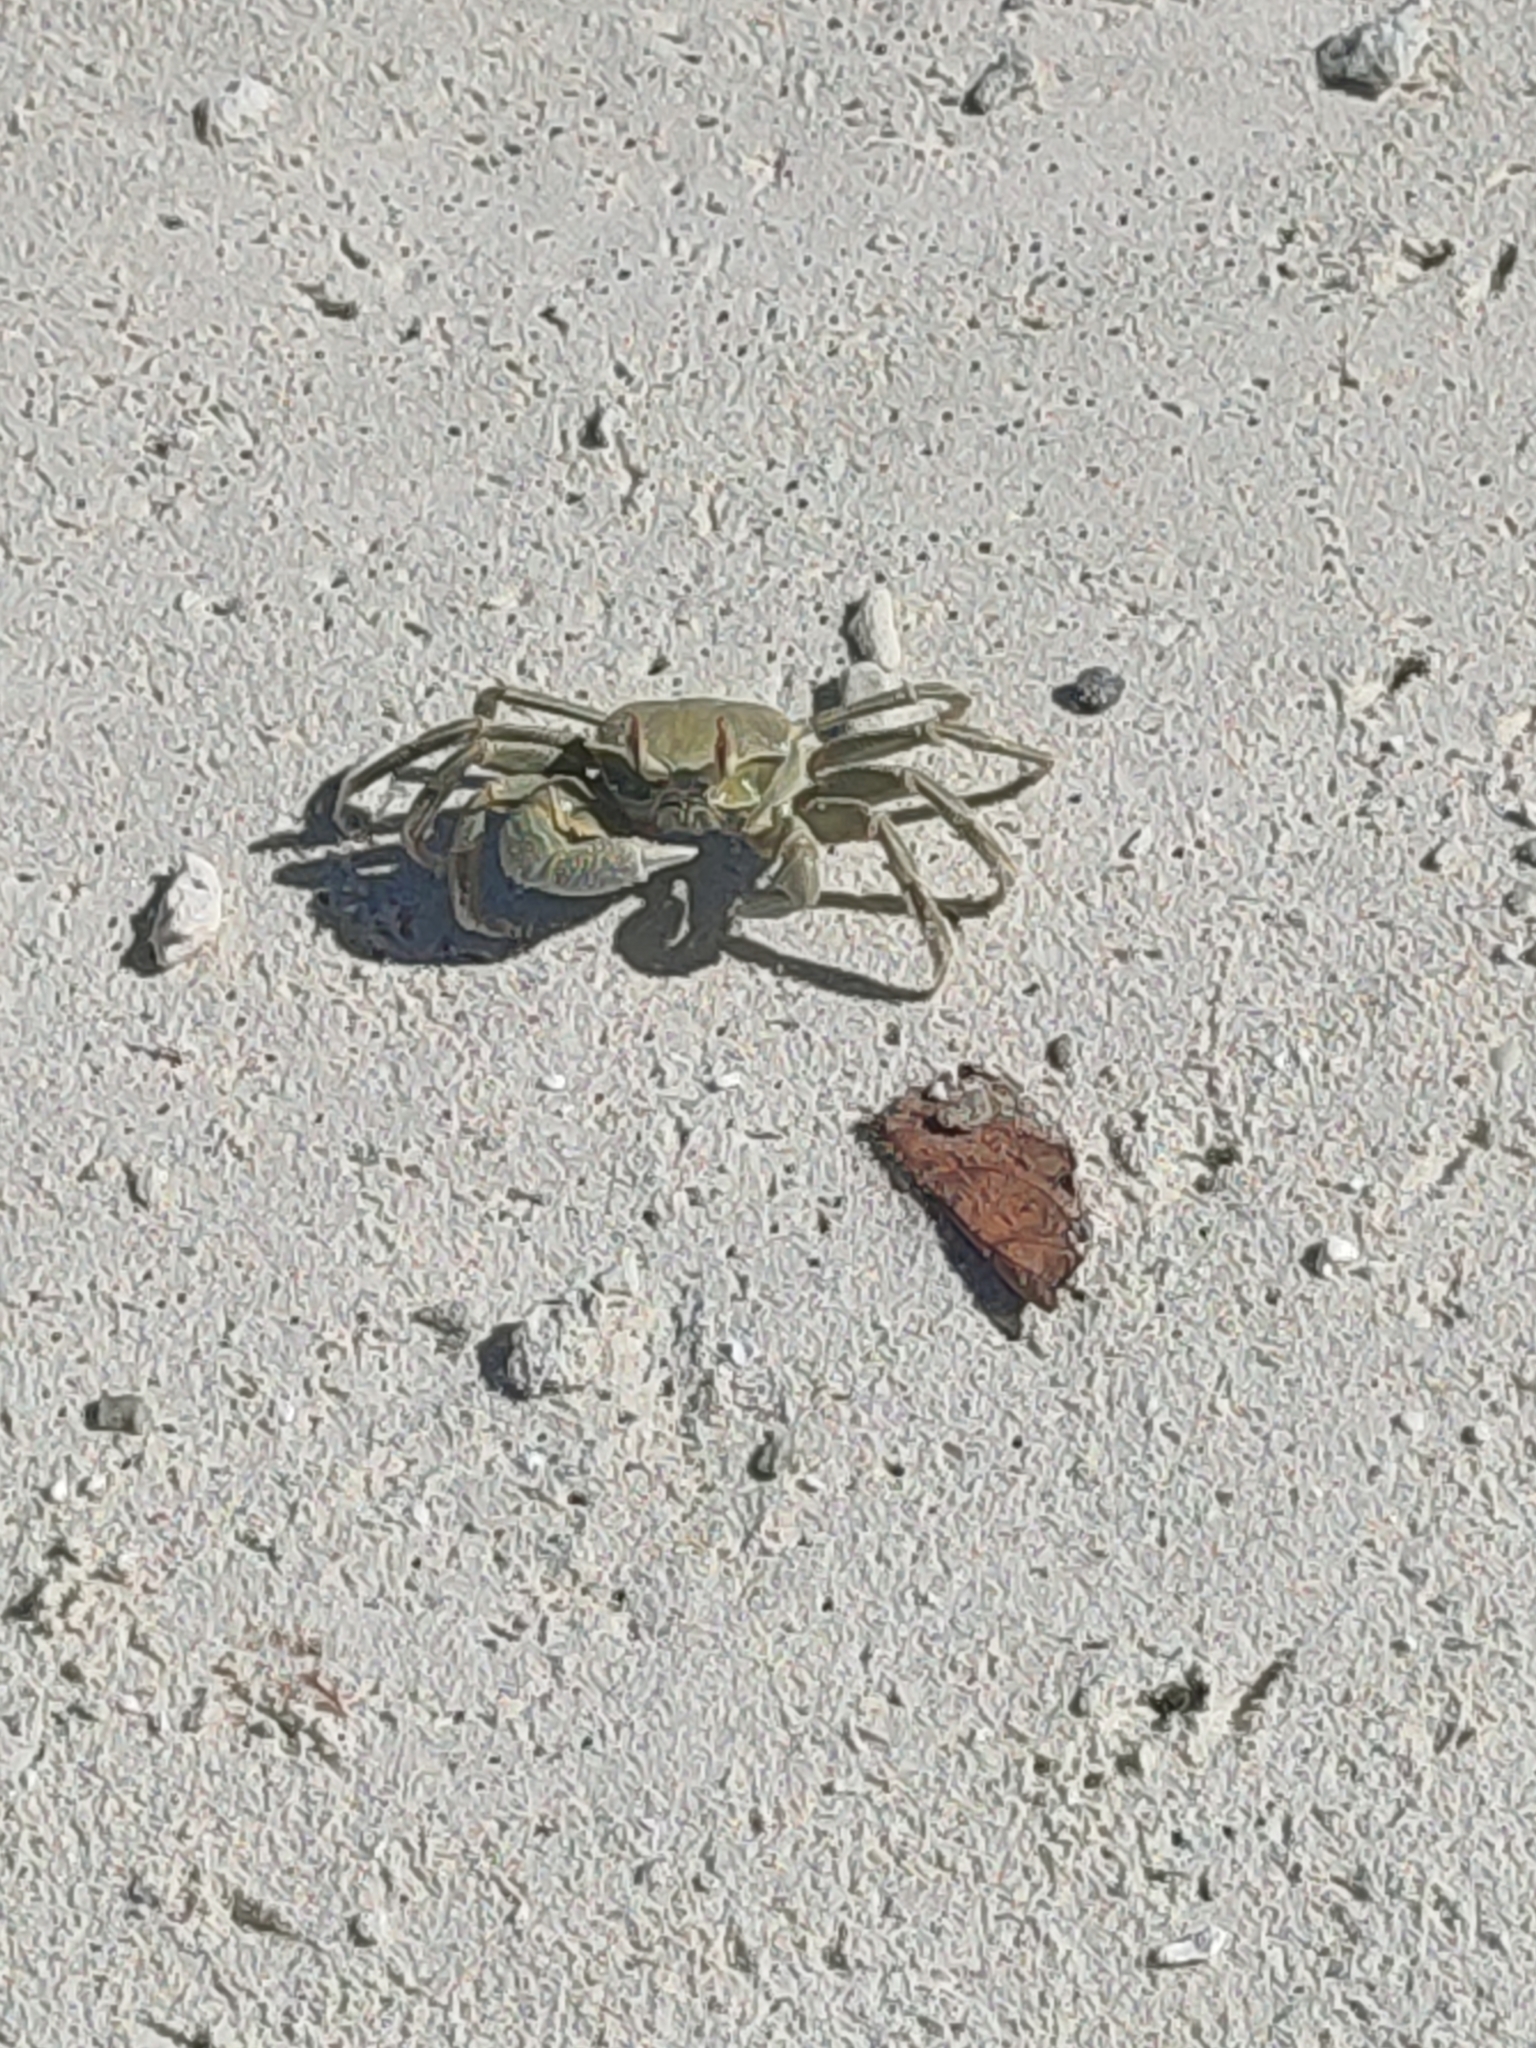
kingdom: Animalia
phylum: Arthropoda
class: Malacostraca
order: Decapoda
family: Ocypodidae
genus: Ocypode
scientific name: Ocypode ceratophthalmus
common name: Indo-pacific ghost crab
